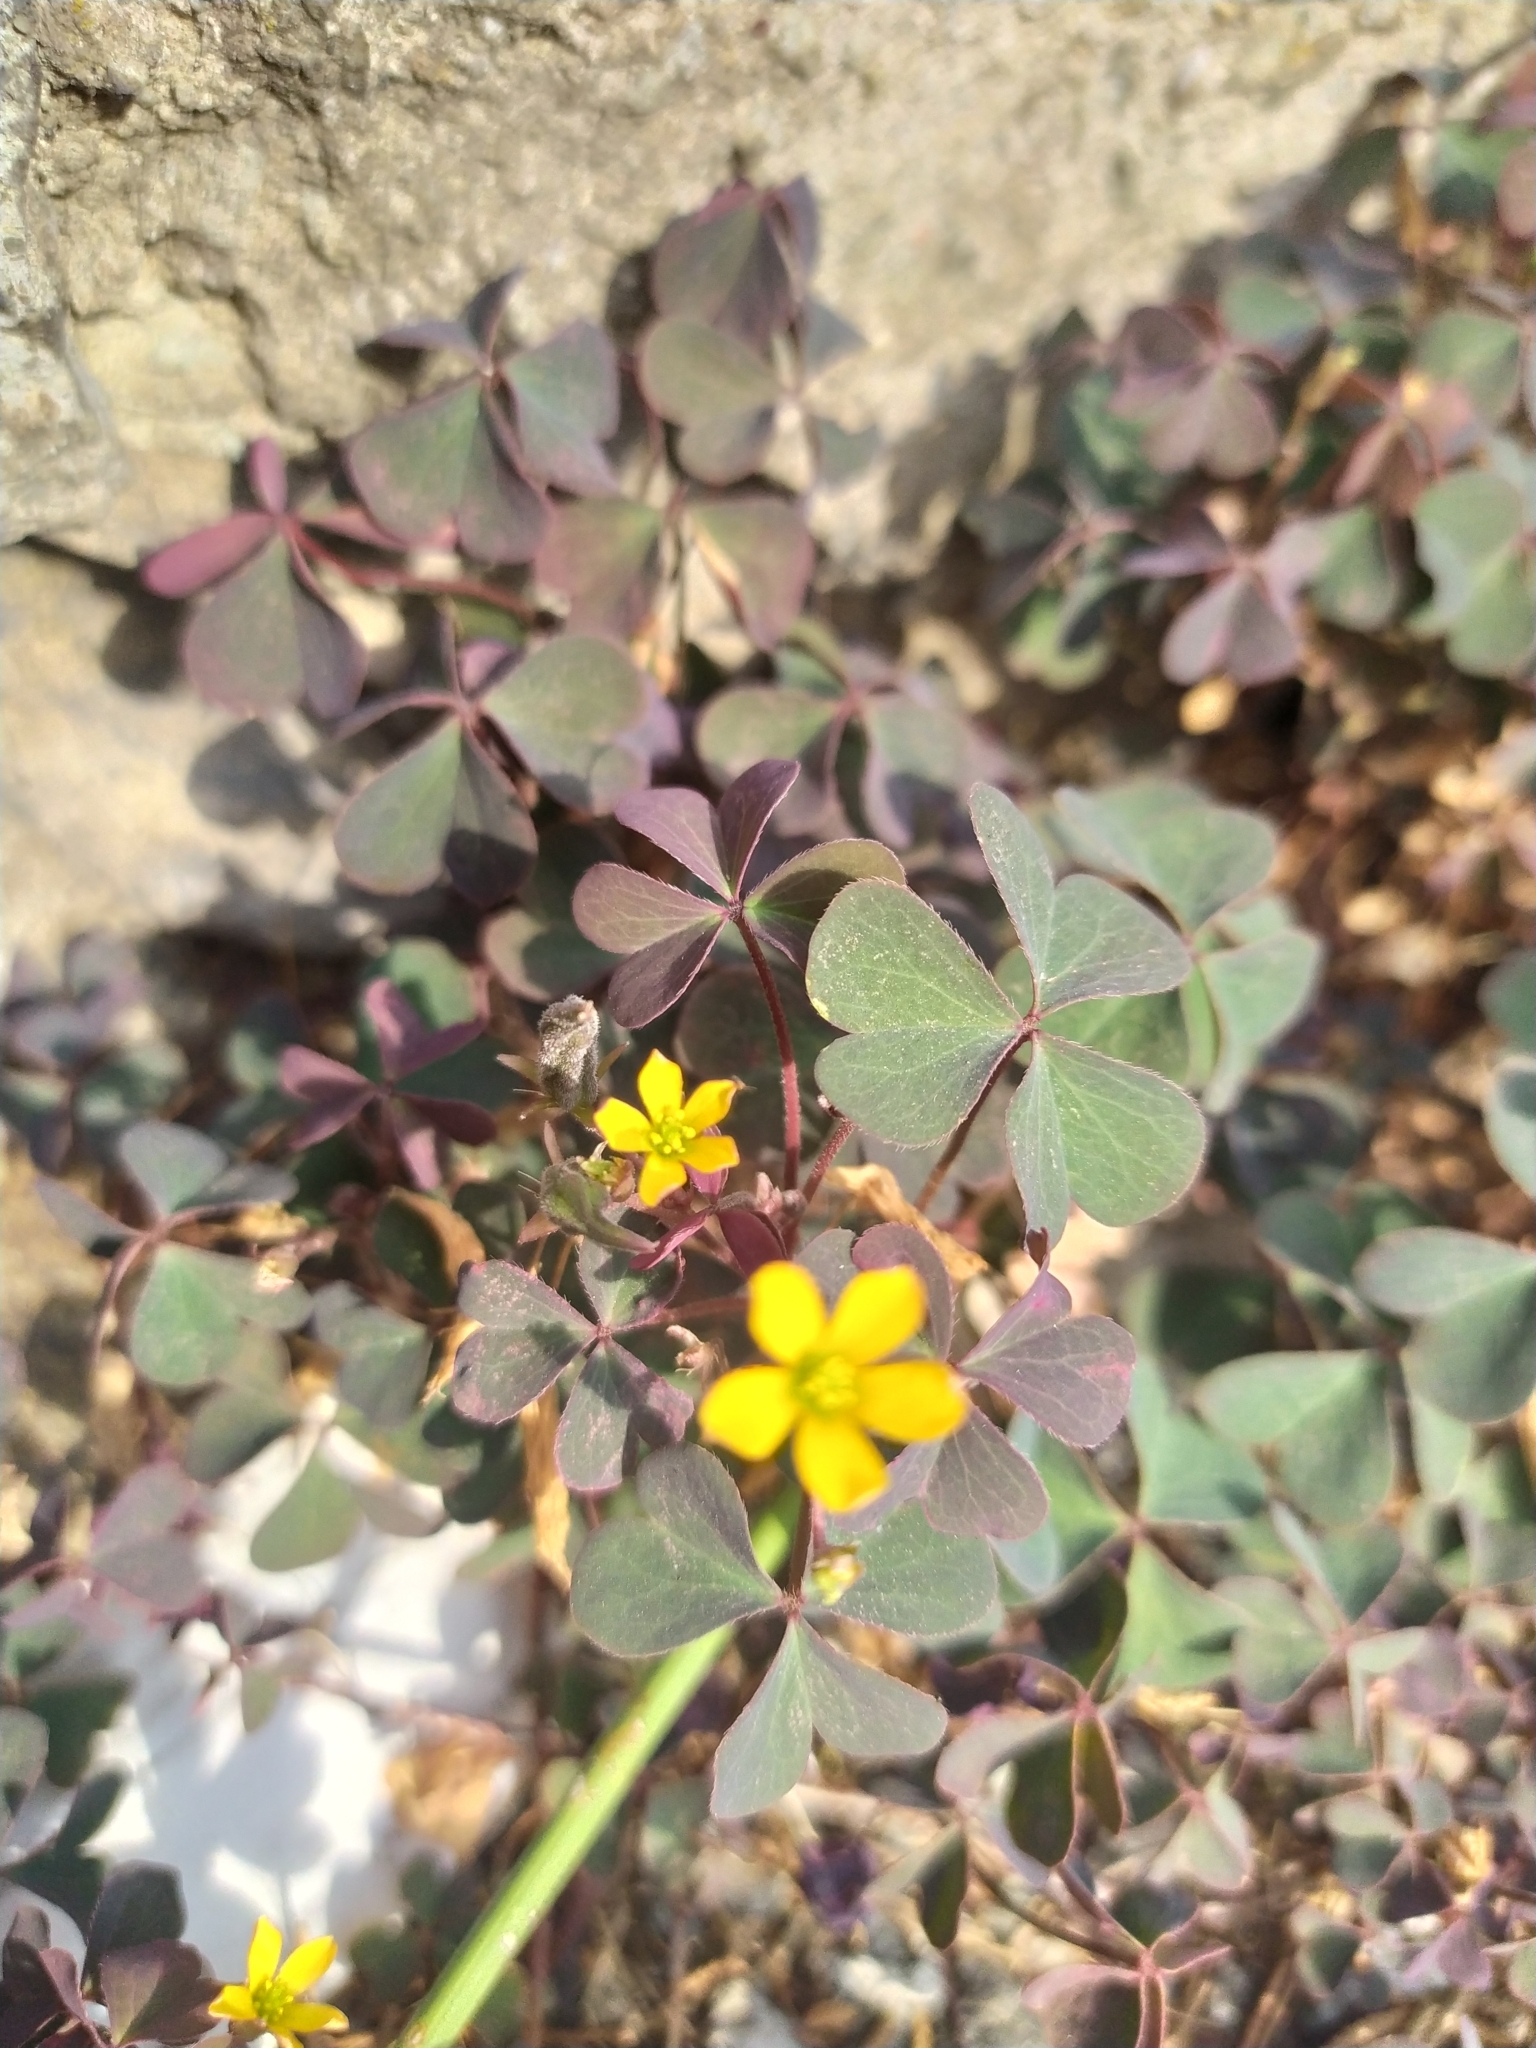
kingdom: Plantae
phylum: Tracheophyta
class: Magnoliopsida
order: Oxalidales
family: Oxalidaceae
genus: Oxalis
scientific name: Oxalis corniculata
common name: Procumbent yellow-sorrel
